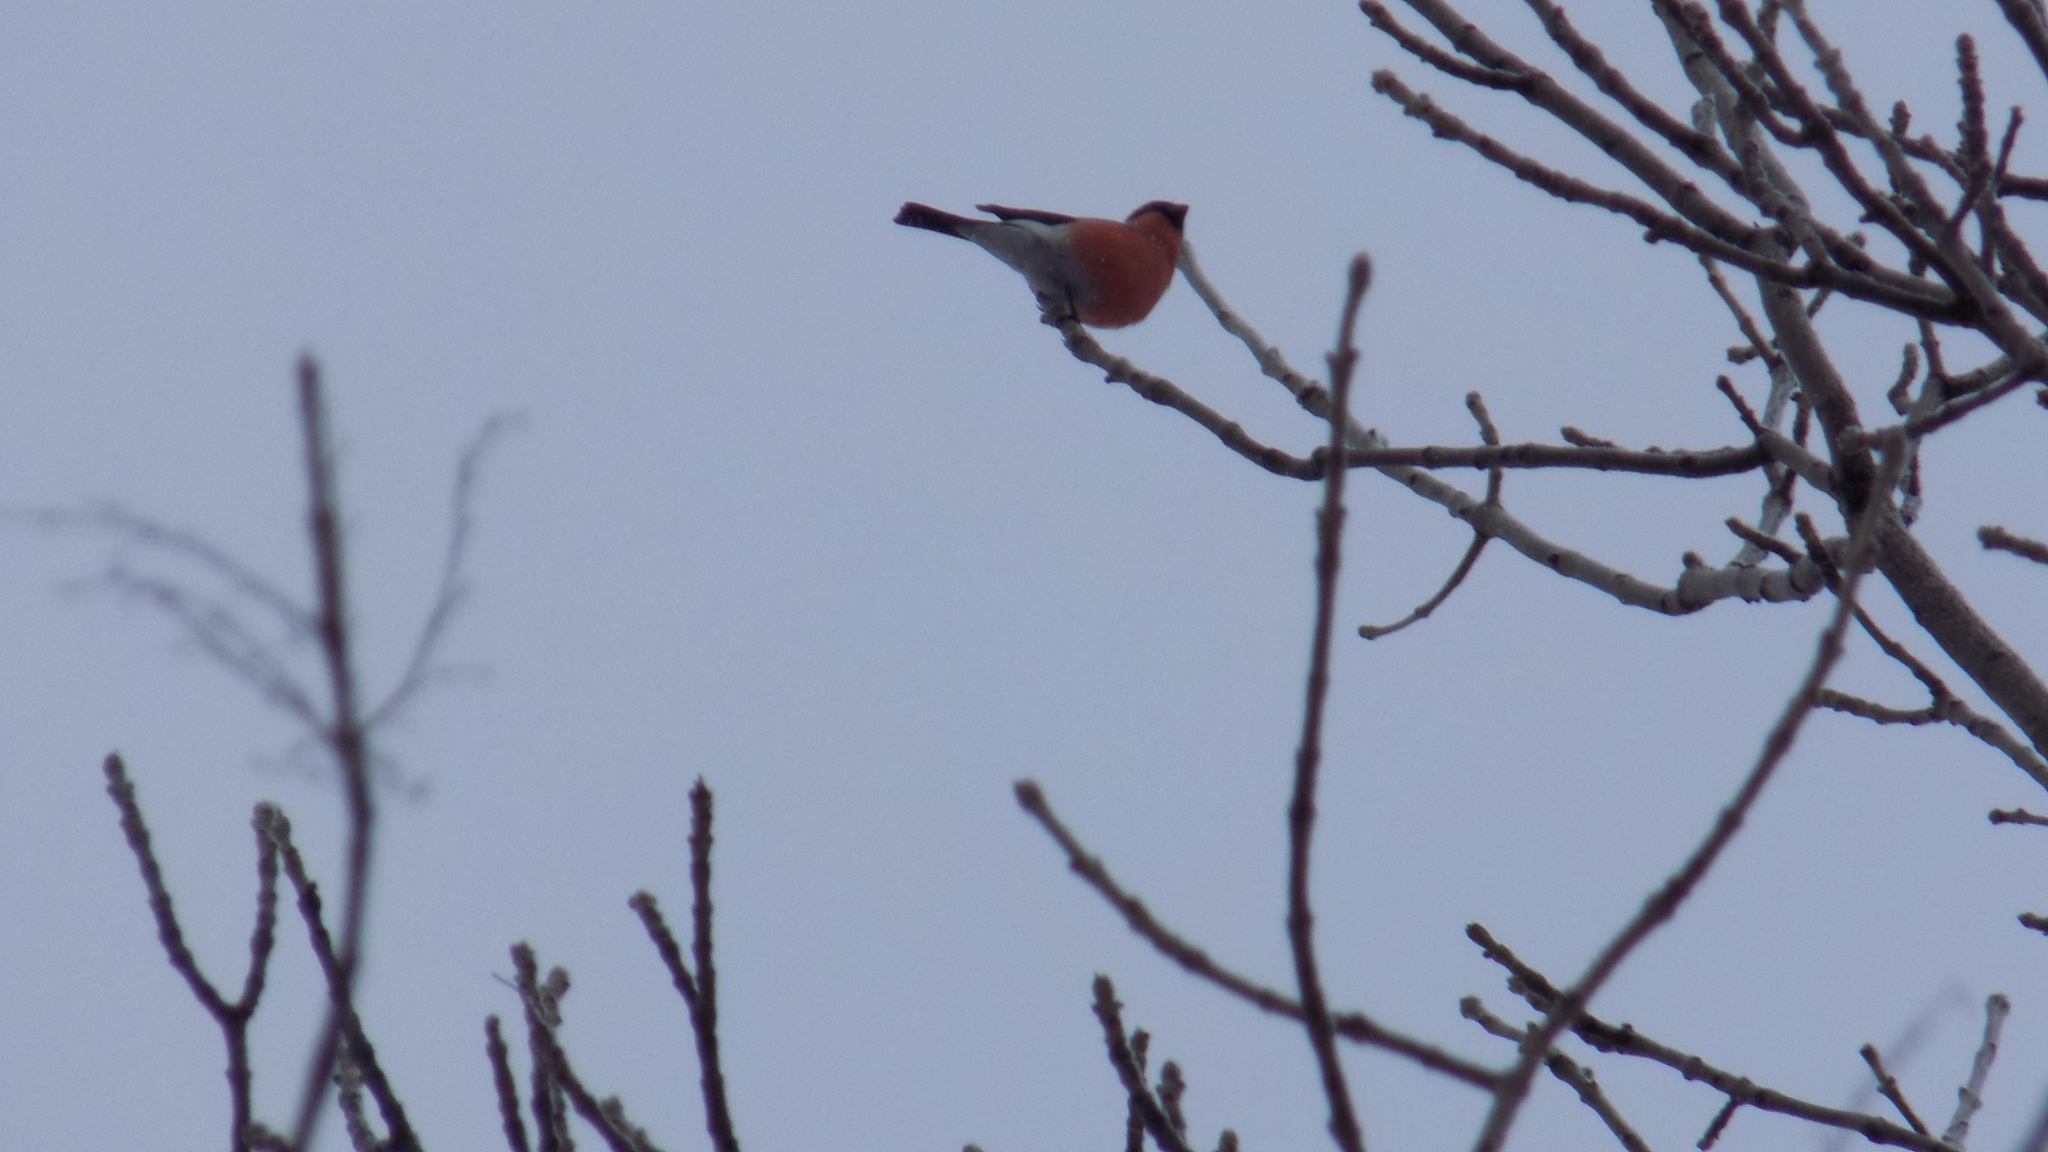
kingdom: Animalia
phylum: Chordata
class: Aves
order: Passeriformes
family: Fringillidae
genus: Pyrrhula
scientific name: Pyrrhula pyrrhula
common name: Eurasian bullfinch
